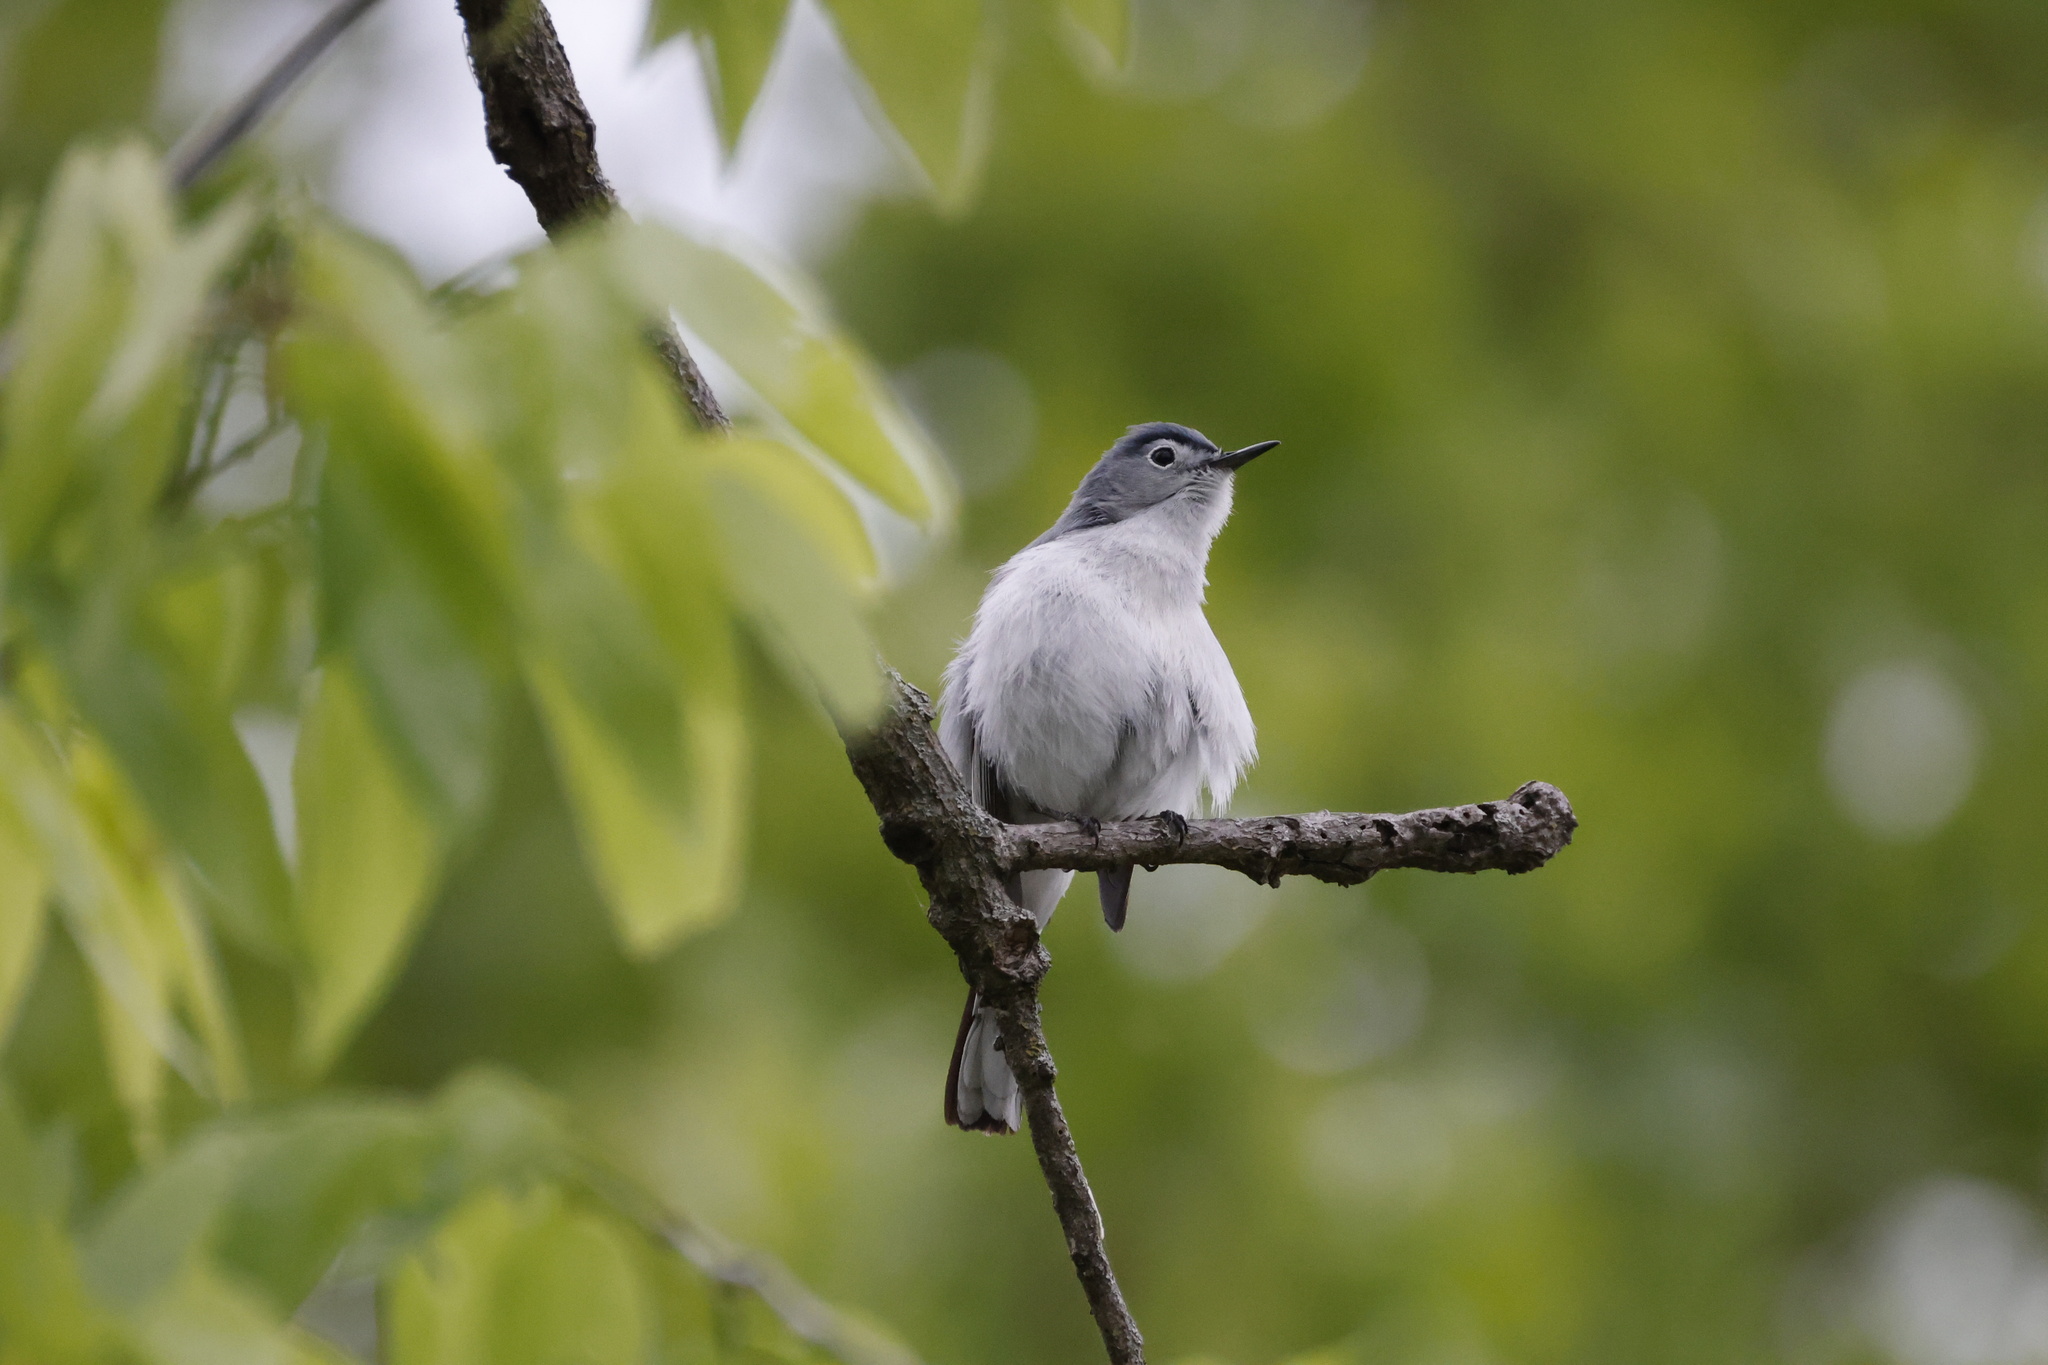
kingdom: Animalia
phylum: Chordata
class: Aves
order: Passeriformes
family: Polioptilidae
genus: Polioptila
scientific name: Polioptila caerulea
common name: Blue-gray gnatcatcher
